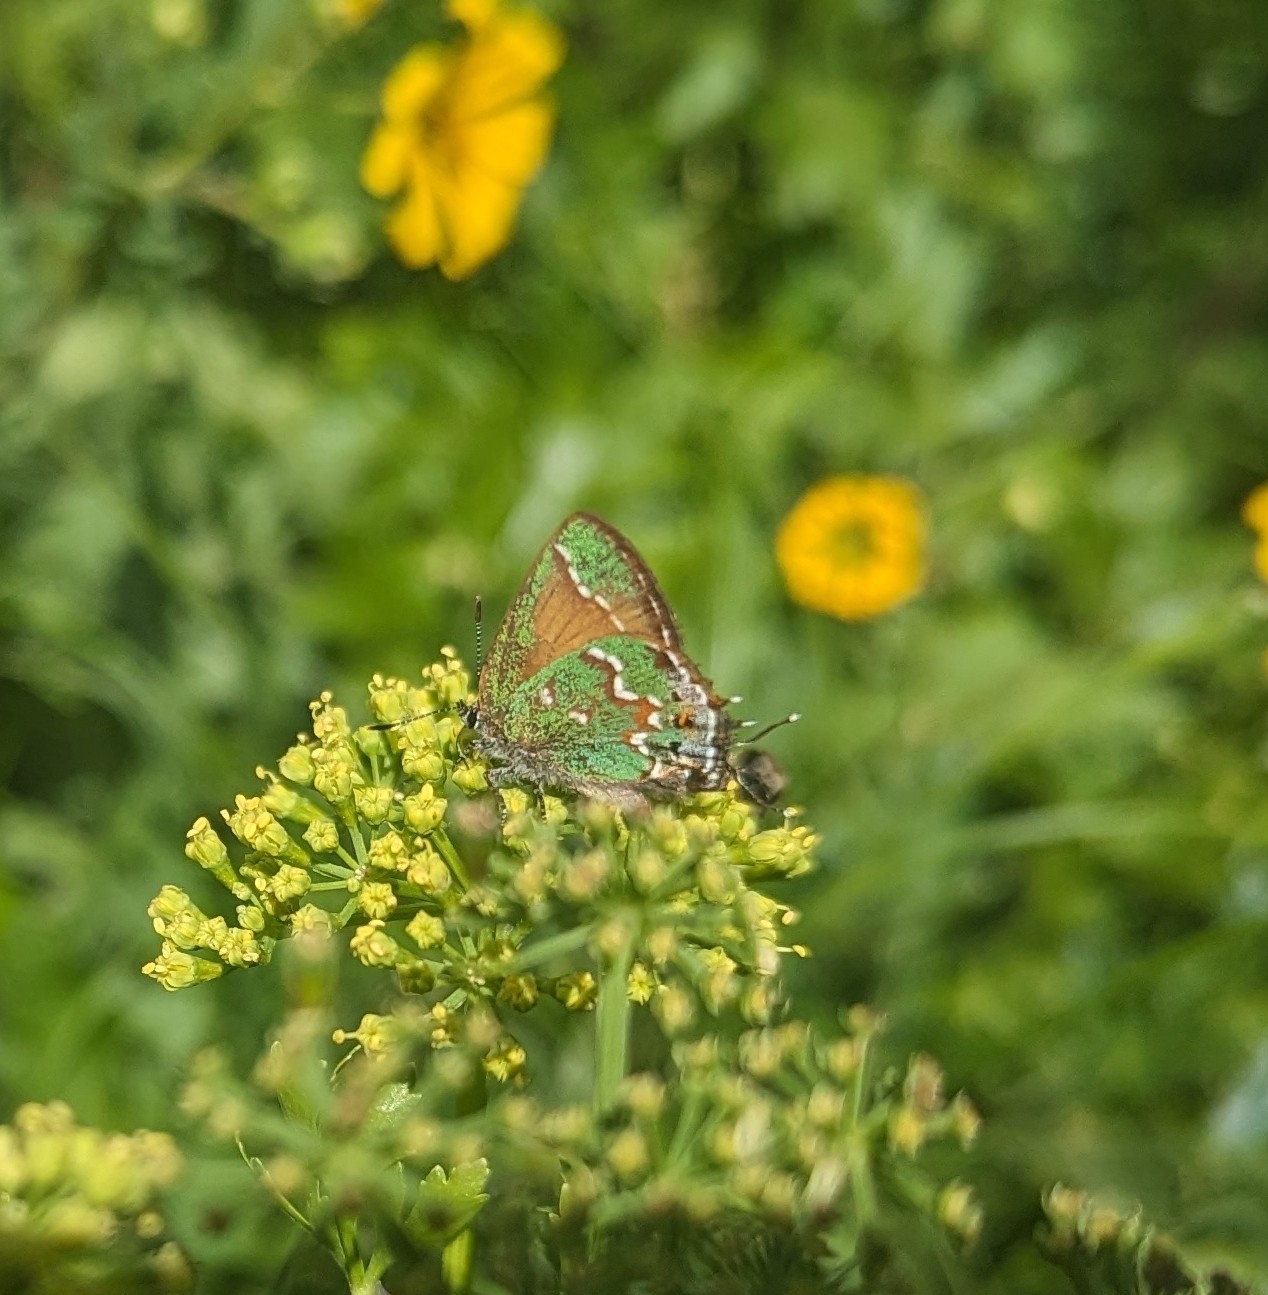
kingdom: Animalia
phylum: Arthropoda
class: Insecta
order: Lepidoptera
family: Lycaenidae
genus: Mitoura
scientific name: Mitoura gryneus
